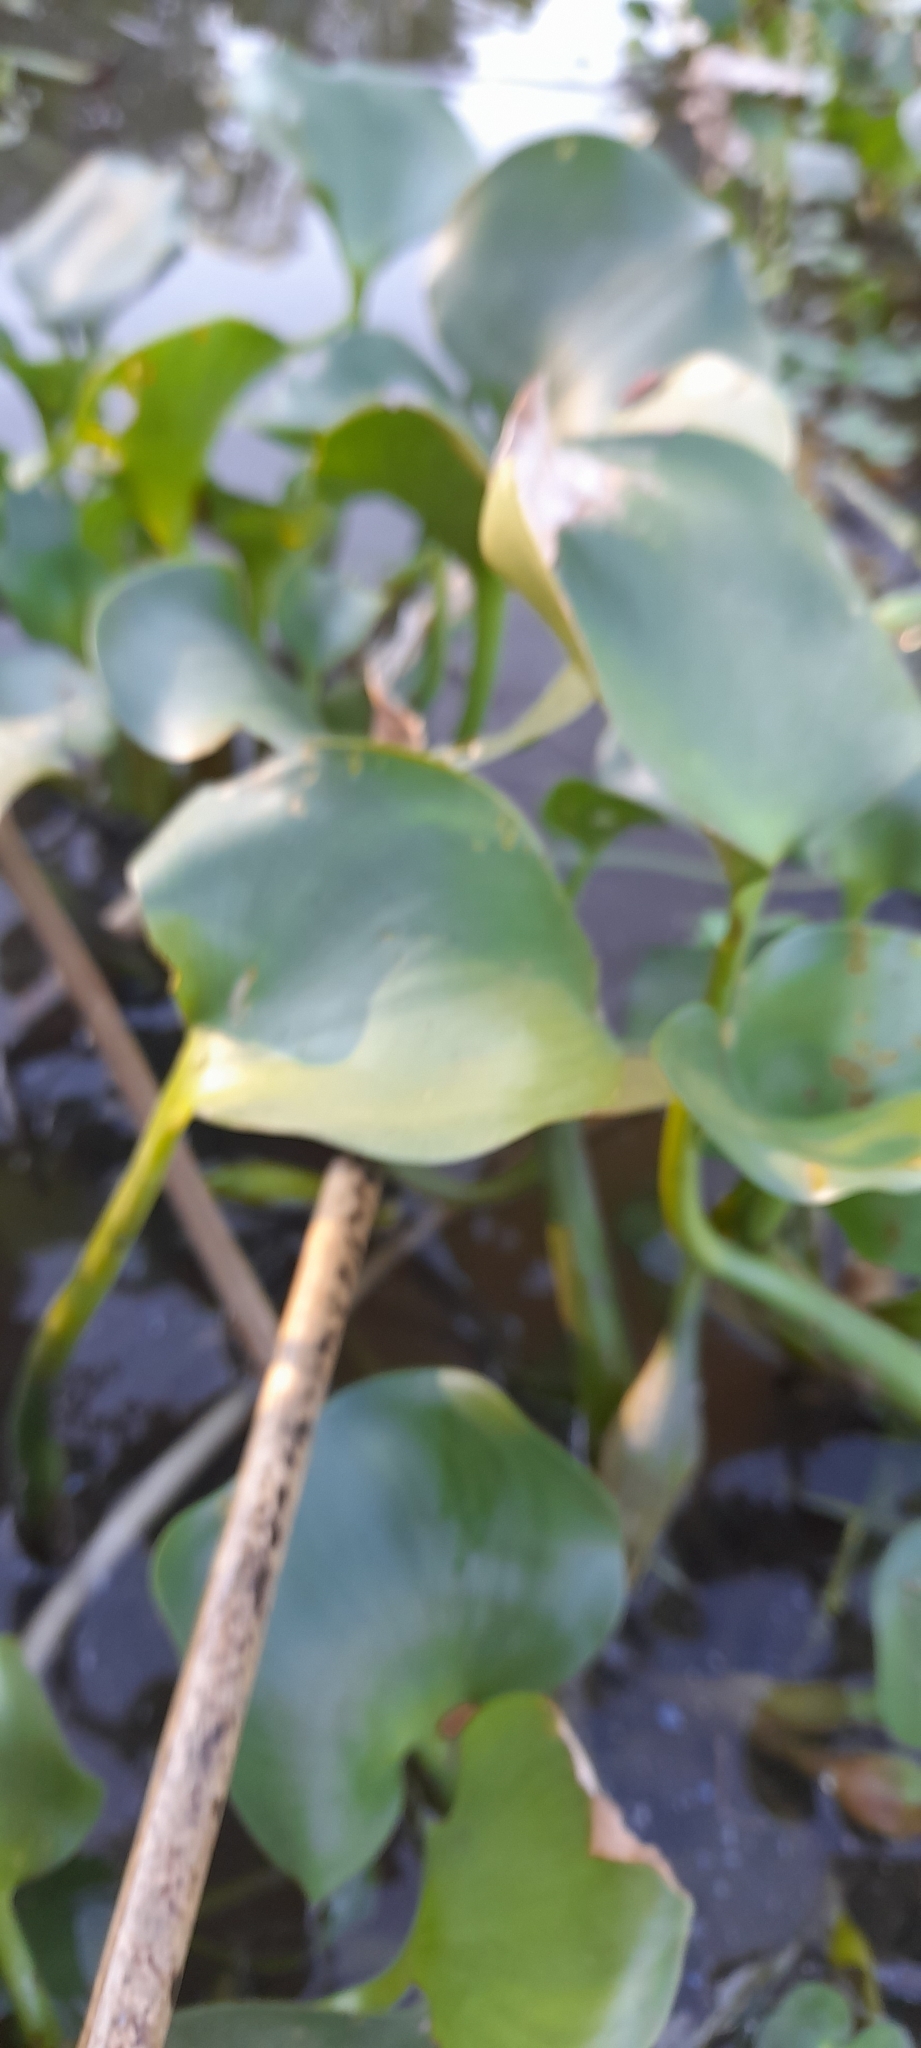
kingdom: Plantae
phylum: Tracheophyta
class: Liliopsida
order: Commelinales
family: Pontederiaceae
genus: Pontederia
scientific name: Pontederia crassipes
